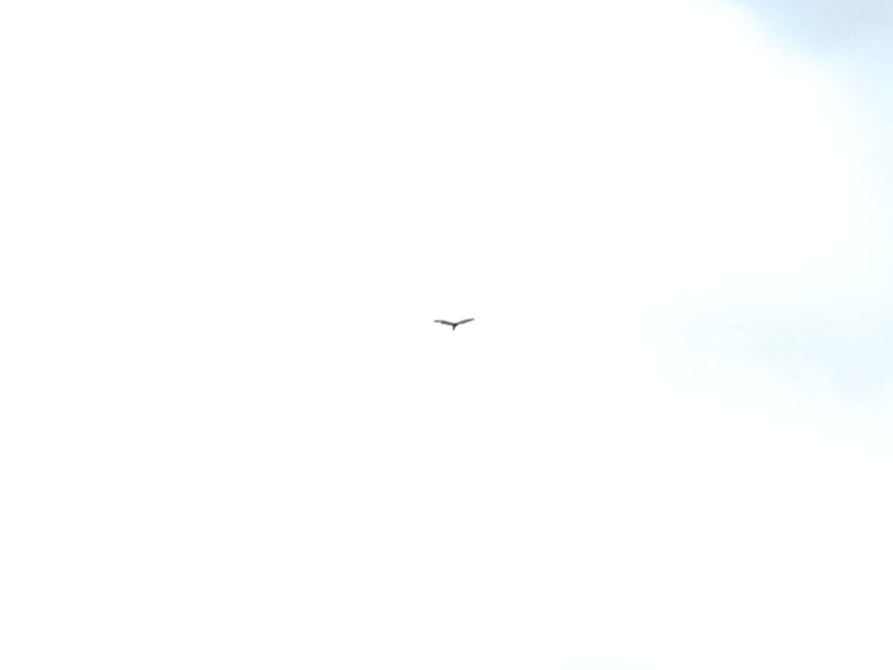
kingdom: Animalia
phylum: Chordata
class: Aves
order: Accipitriformes
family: Cathartidae
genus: Cathartes
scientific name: Cathartes aura
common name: Turkey vulture
